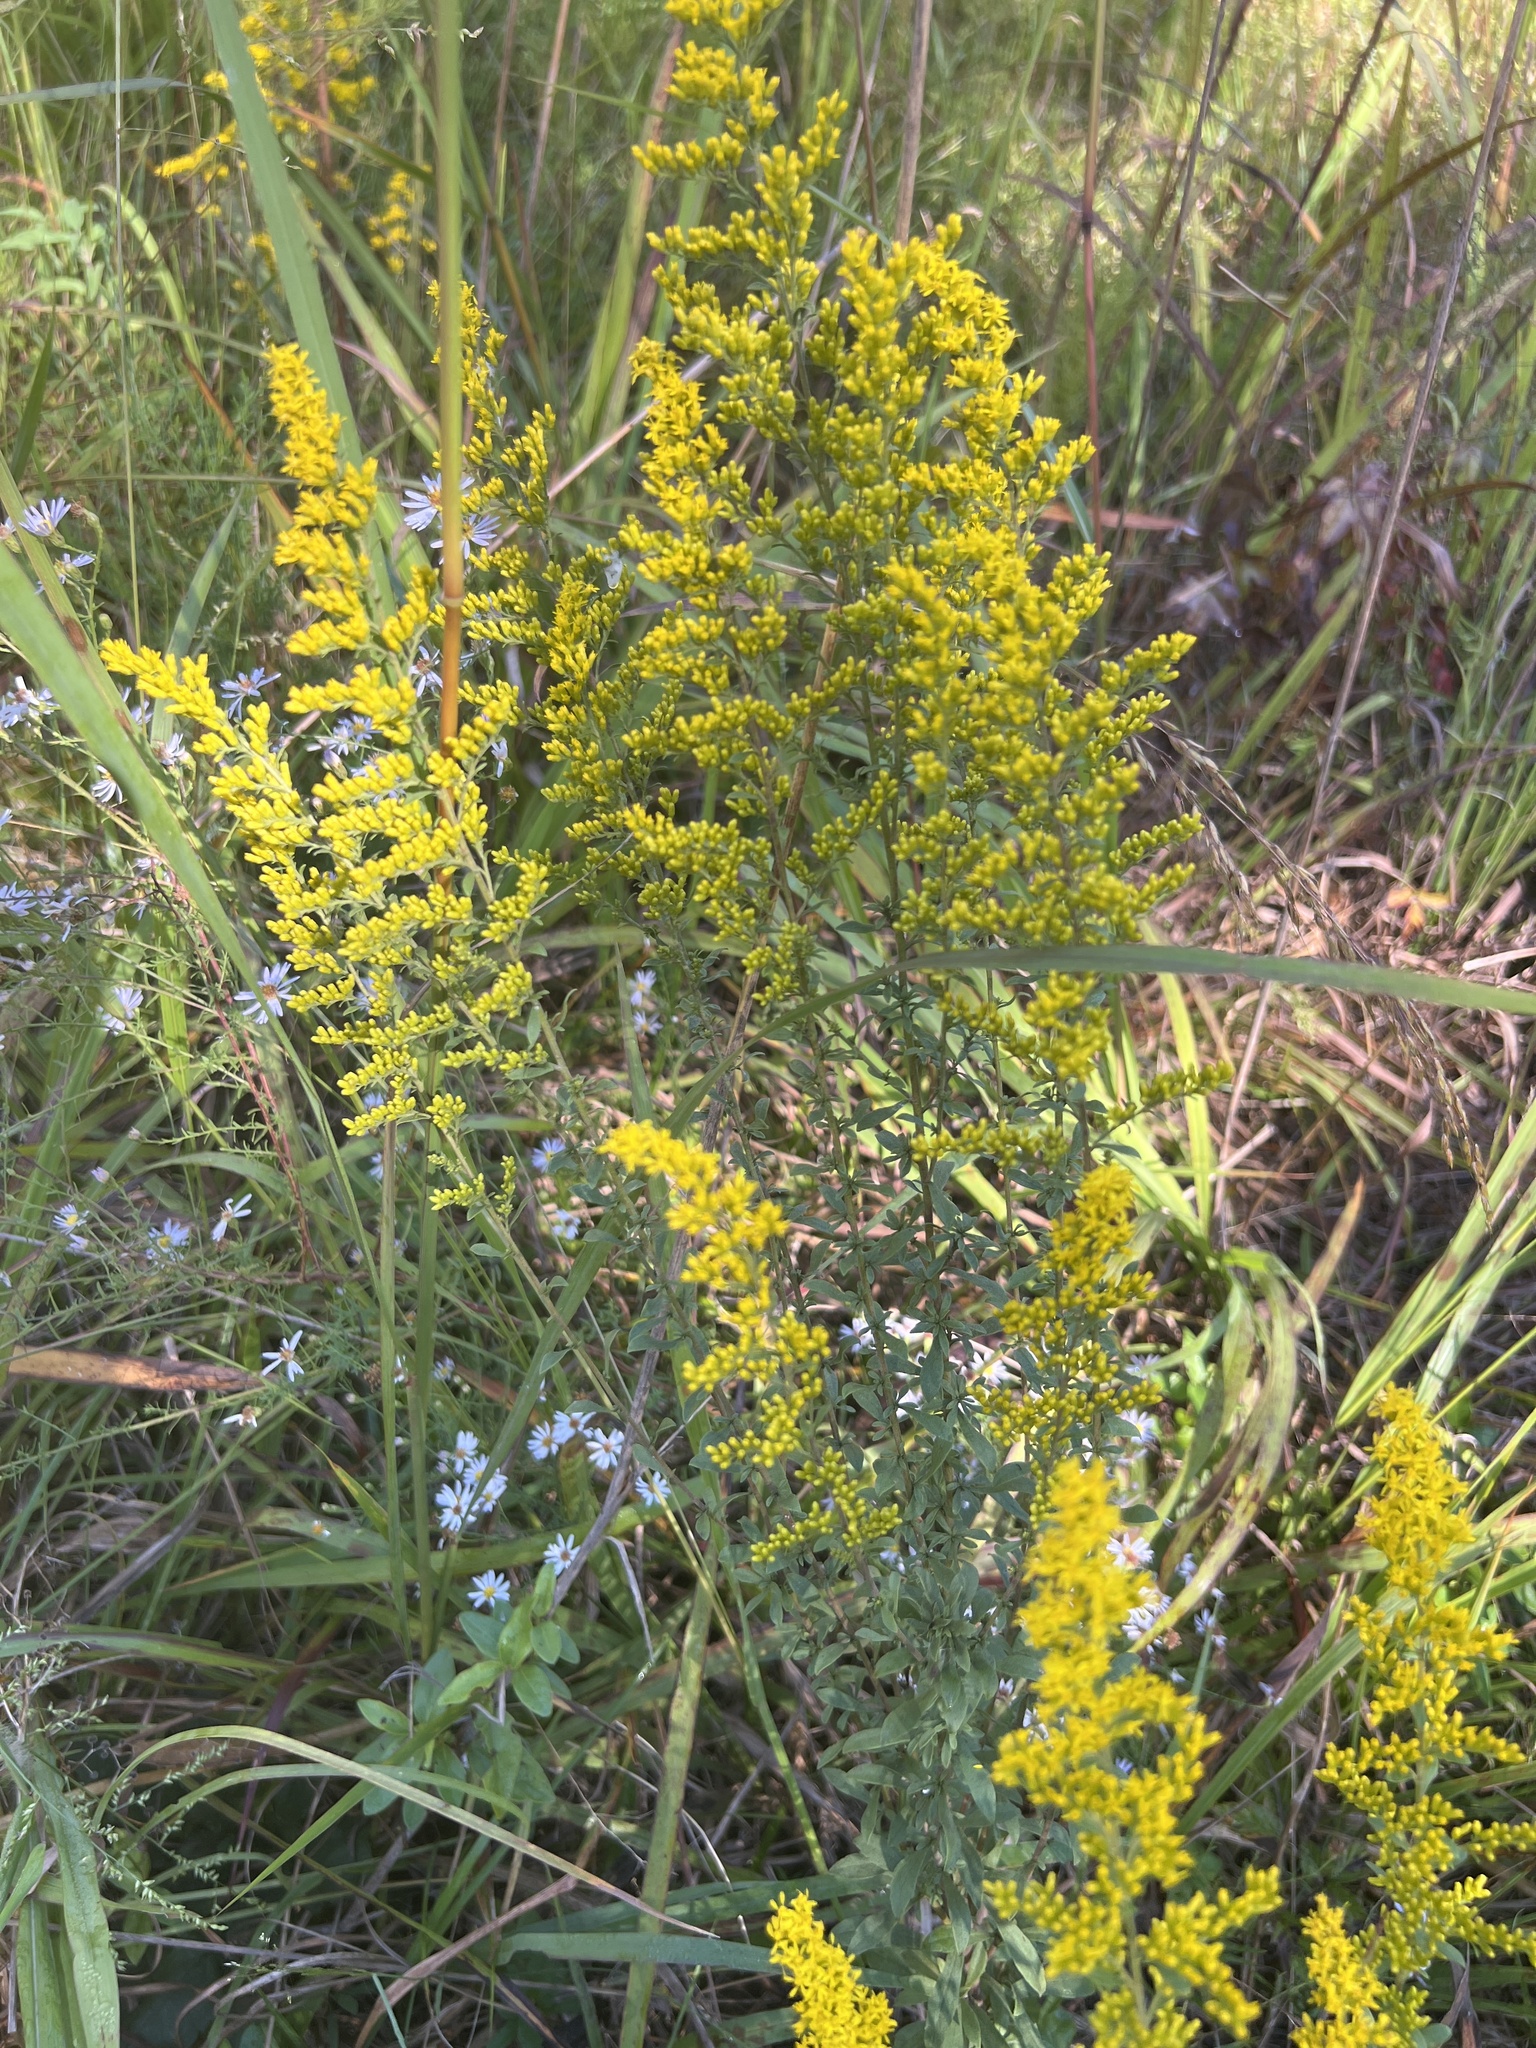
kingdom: Plantae
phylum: Tracheophyta
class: Magnoliopsida
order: Asterales
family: Asteraceae
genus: Solidago
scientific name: Solidago nemoralis
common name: Grey goldenrod
